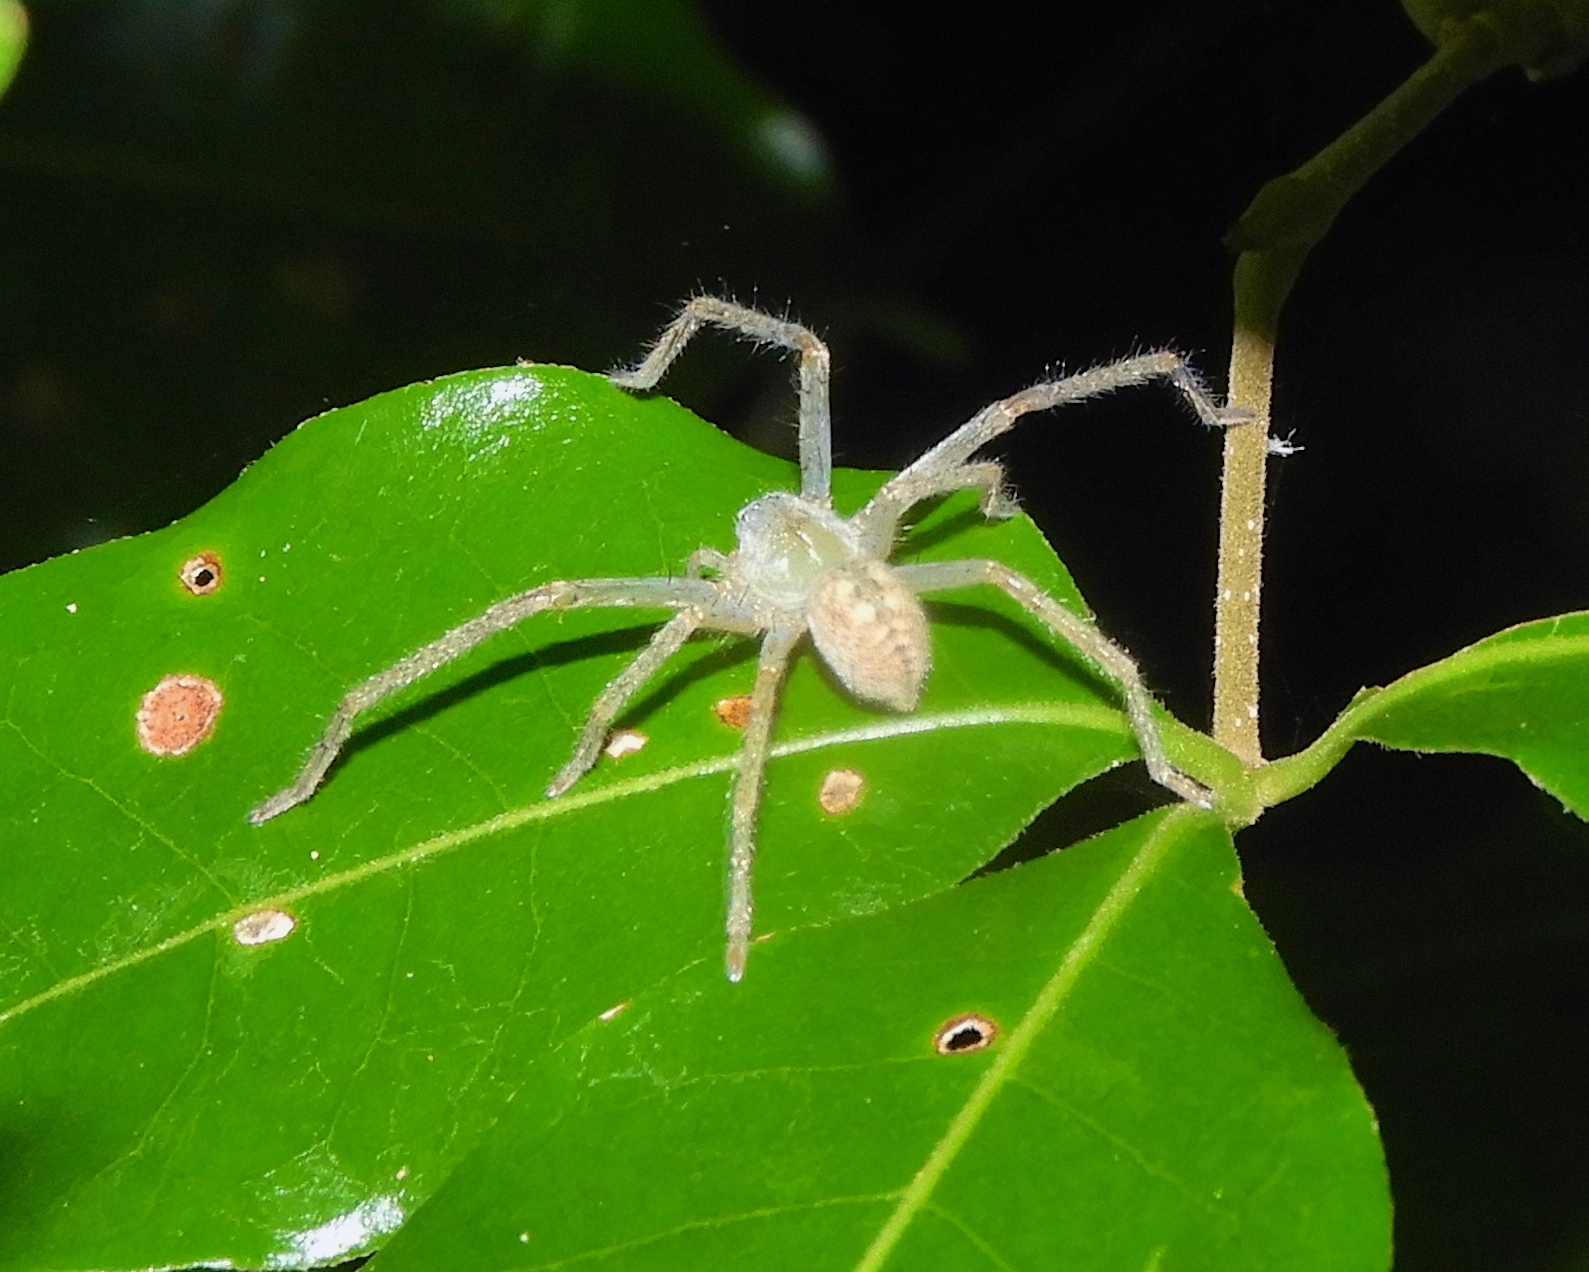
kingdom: Animalia
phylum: Arthropoda
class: Arachnida
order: Araneae
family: Sparassidae
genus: Curicaberis
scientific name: Curicaberis culiacan
